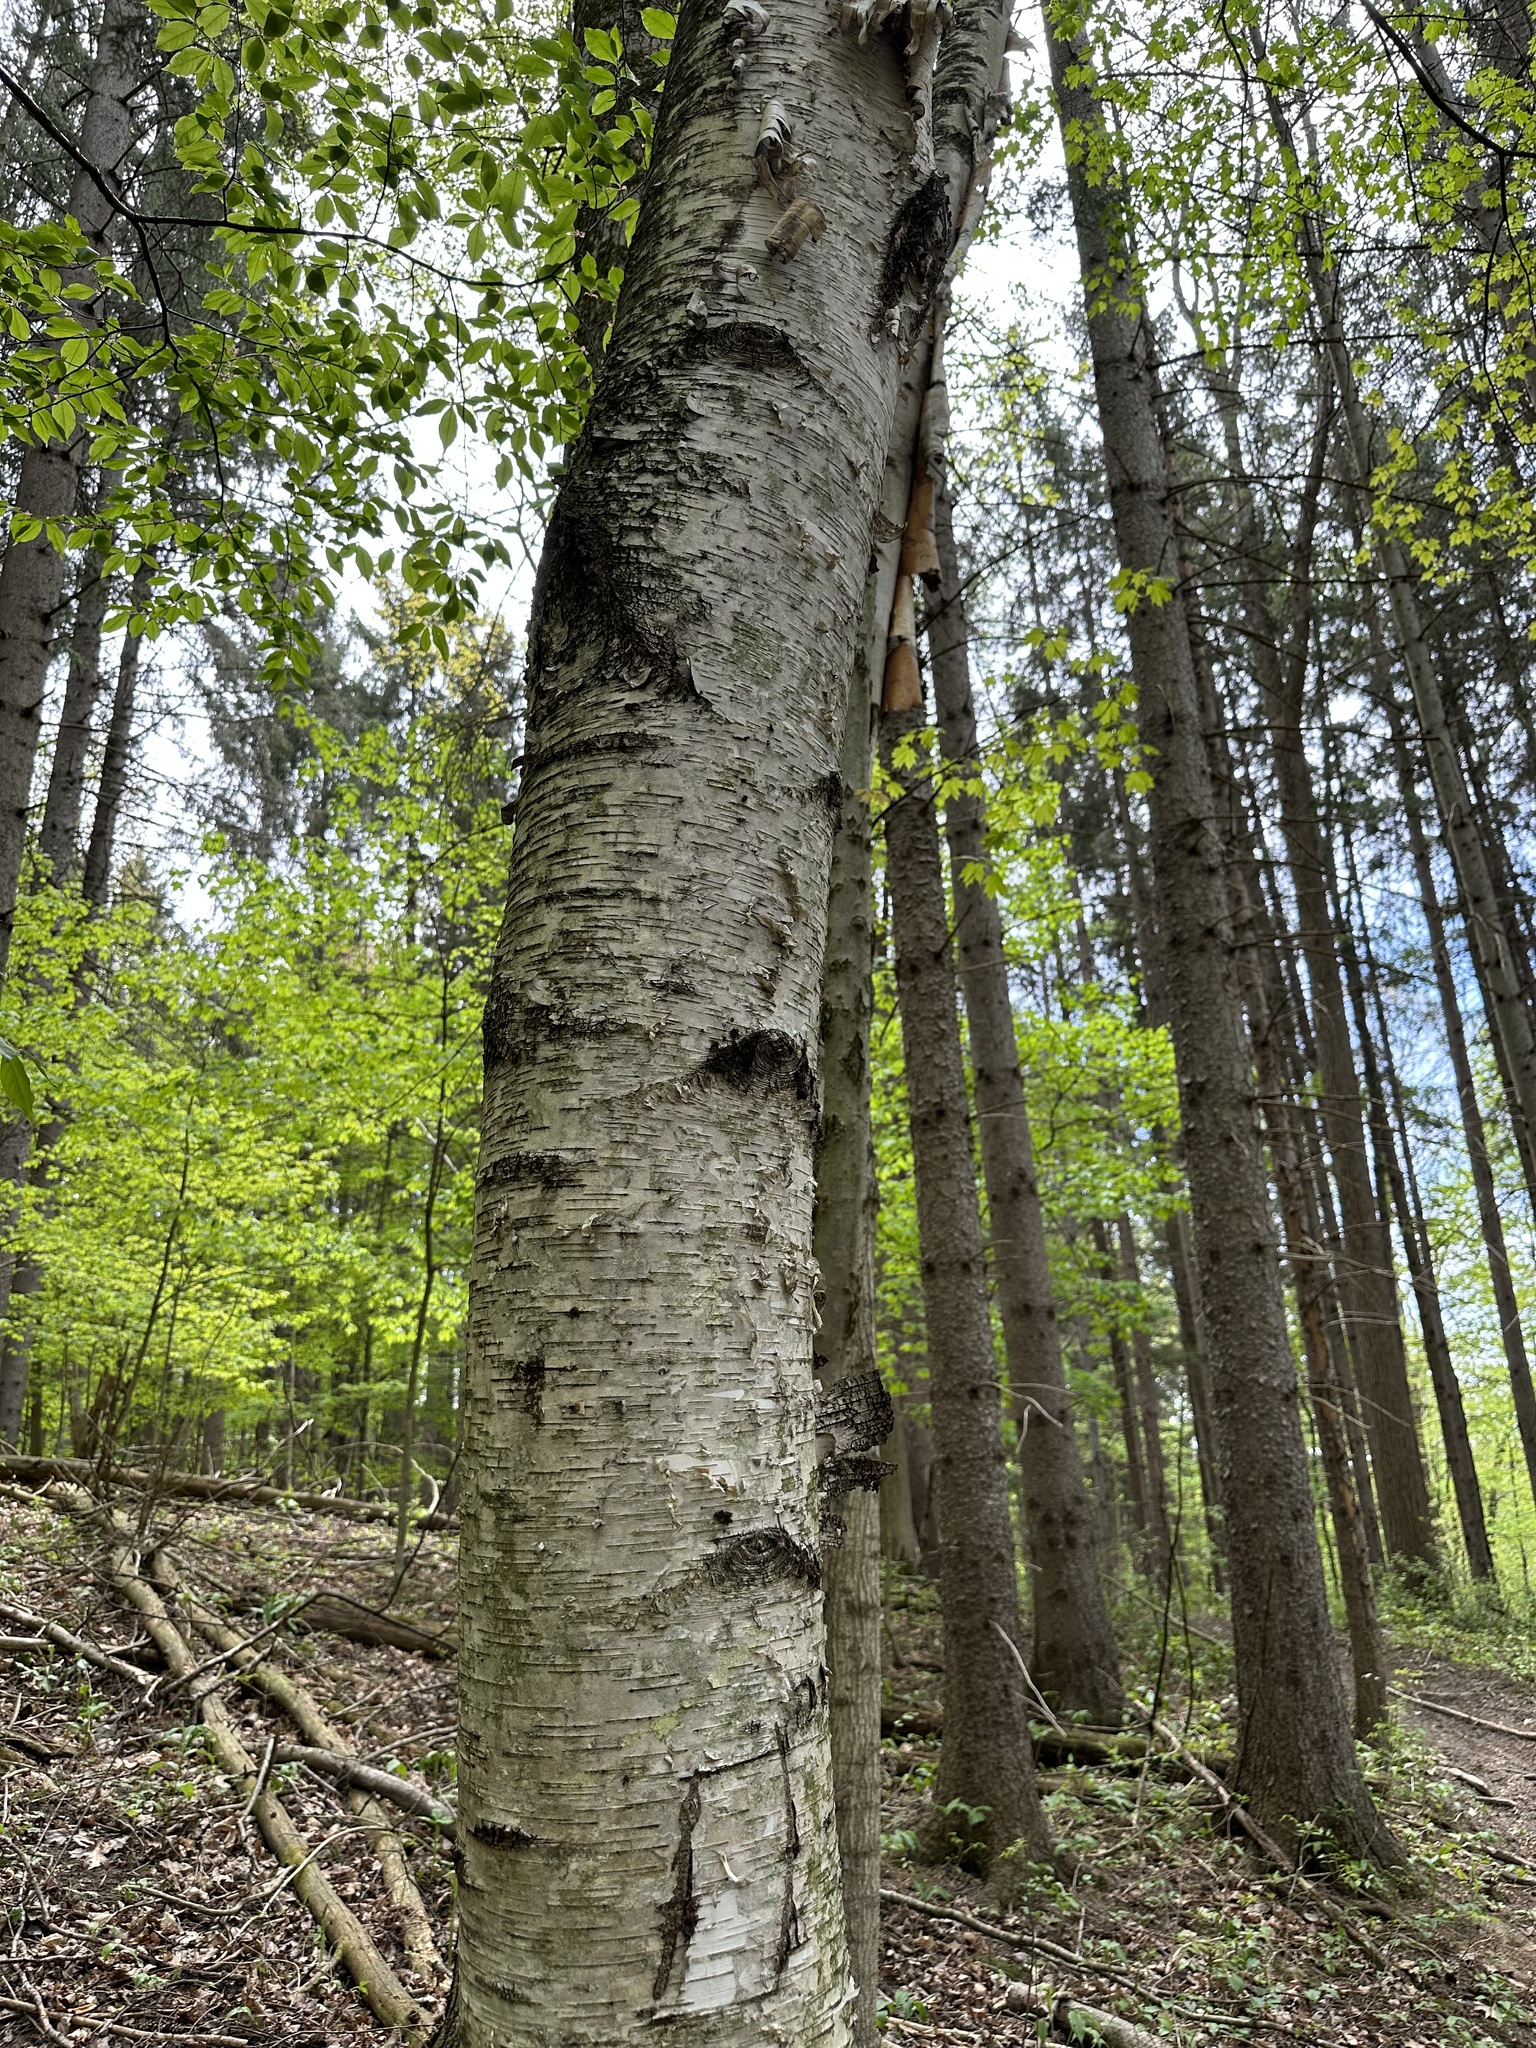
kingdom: Plantae
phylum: Tracheophyta
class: Magnoliopsida
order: Fagales
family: Betulaceae
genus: Betula
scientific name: Betula papyrifera
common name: Paper birch
